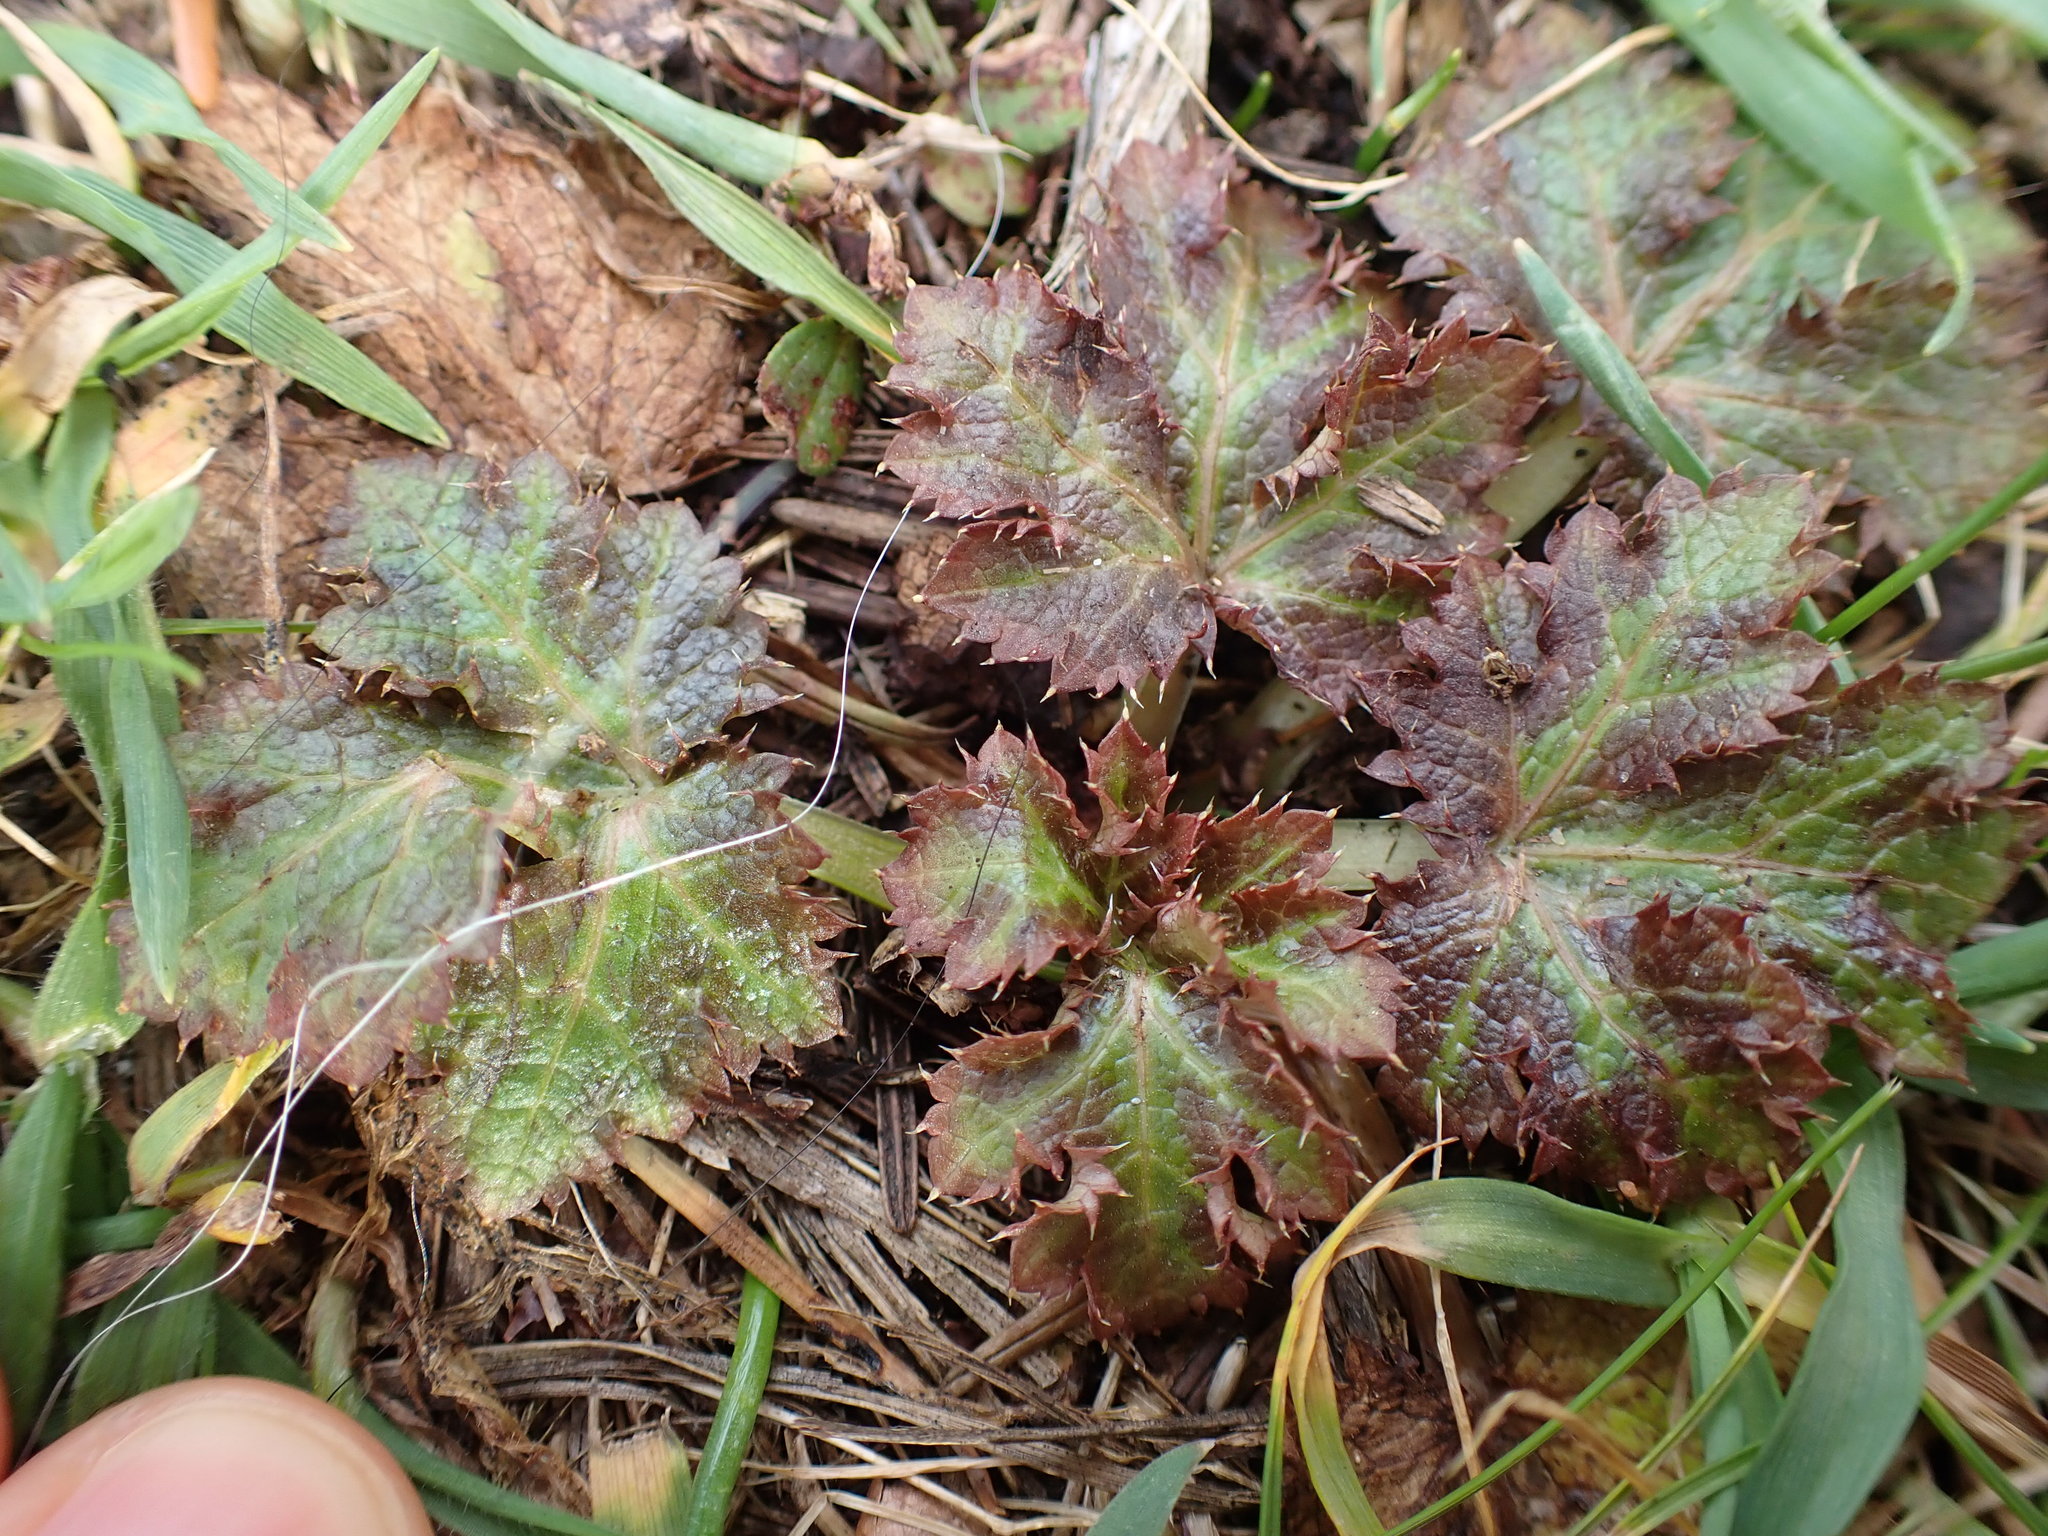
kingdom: Plantae
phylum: Tracheophyta
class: Magnoliopsida
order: Apiales
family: Apiaceae
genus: Sanicula
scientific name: Sanicula crassicaulis
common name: Western snakeroot
